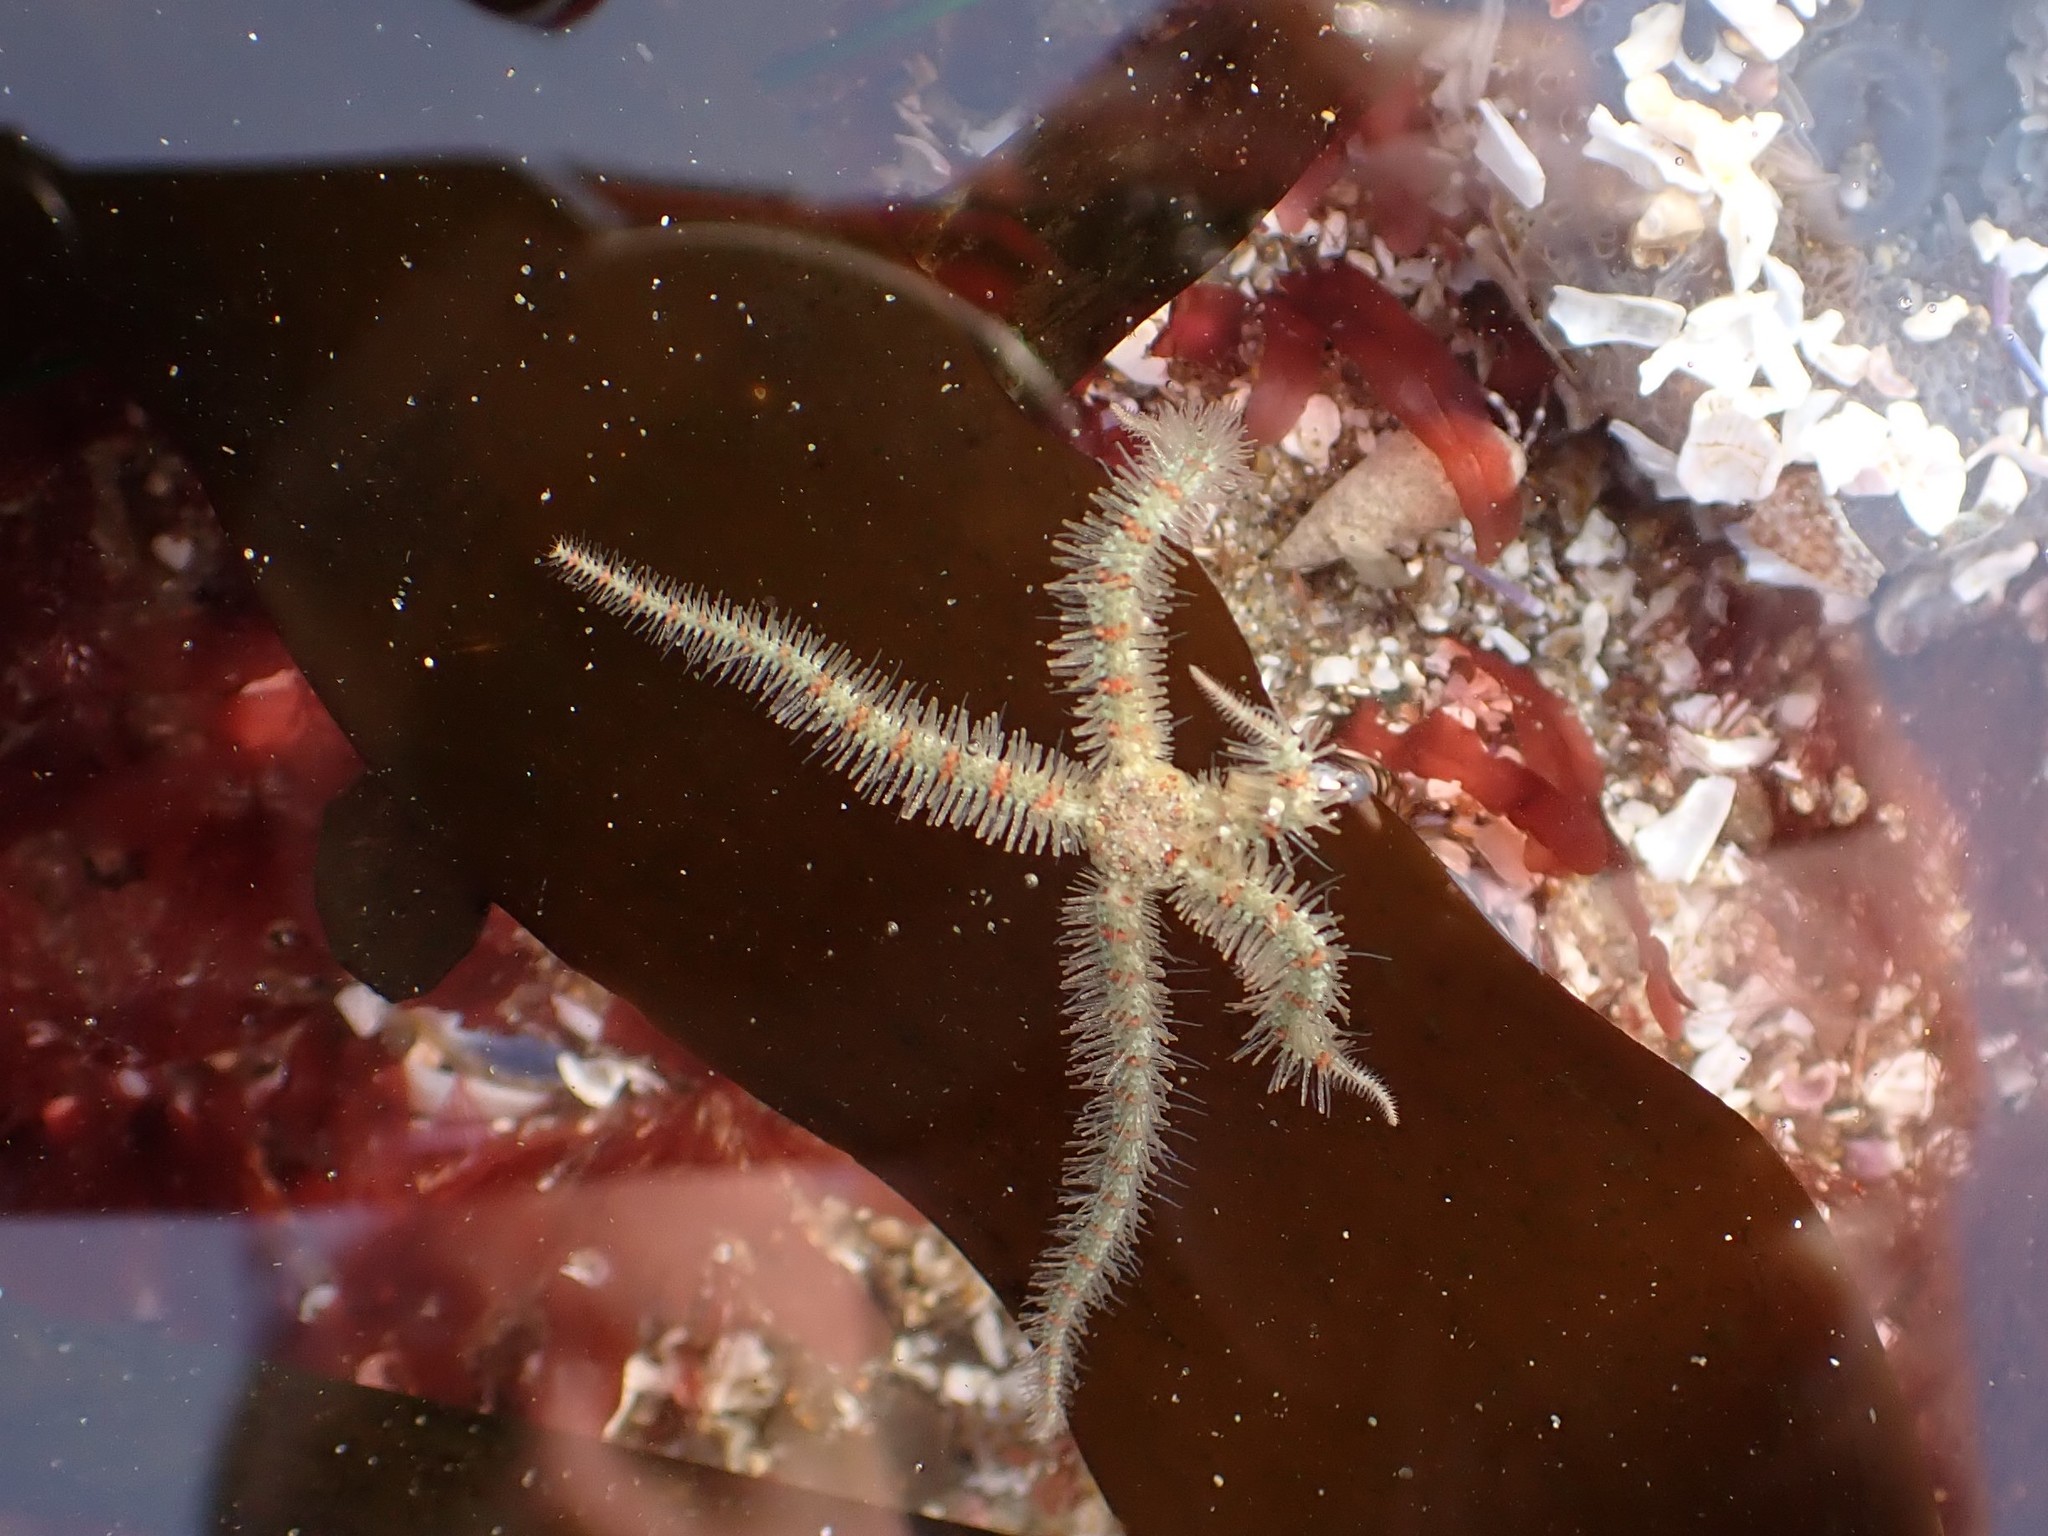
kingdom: Animalia
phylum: Echinodermata
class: Ophiuroidea
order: Amphilepidida
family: Ophiotrichidae
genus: Ophiothrix
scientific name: Ophiothrix spiculata
